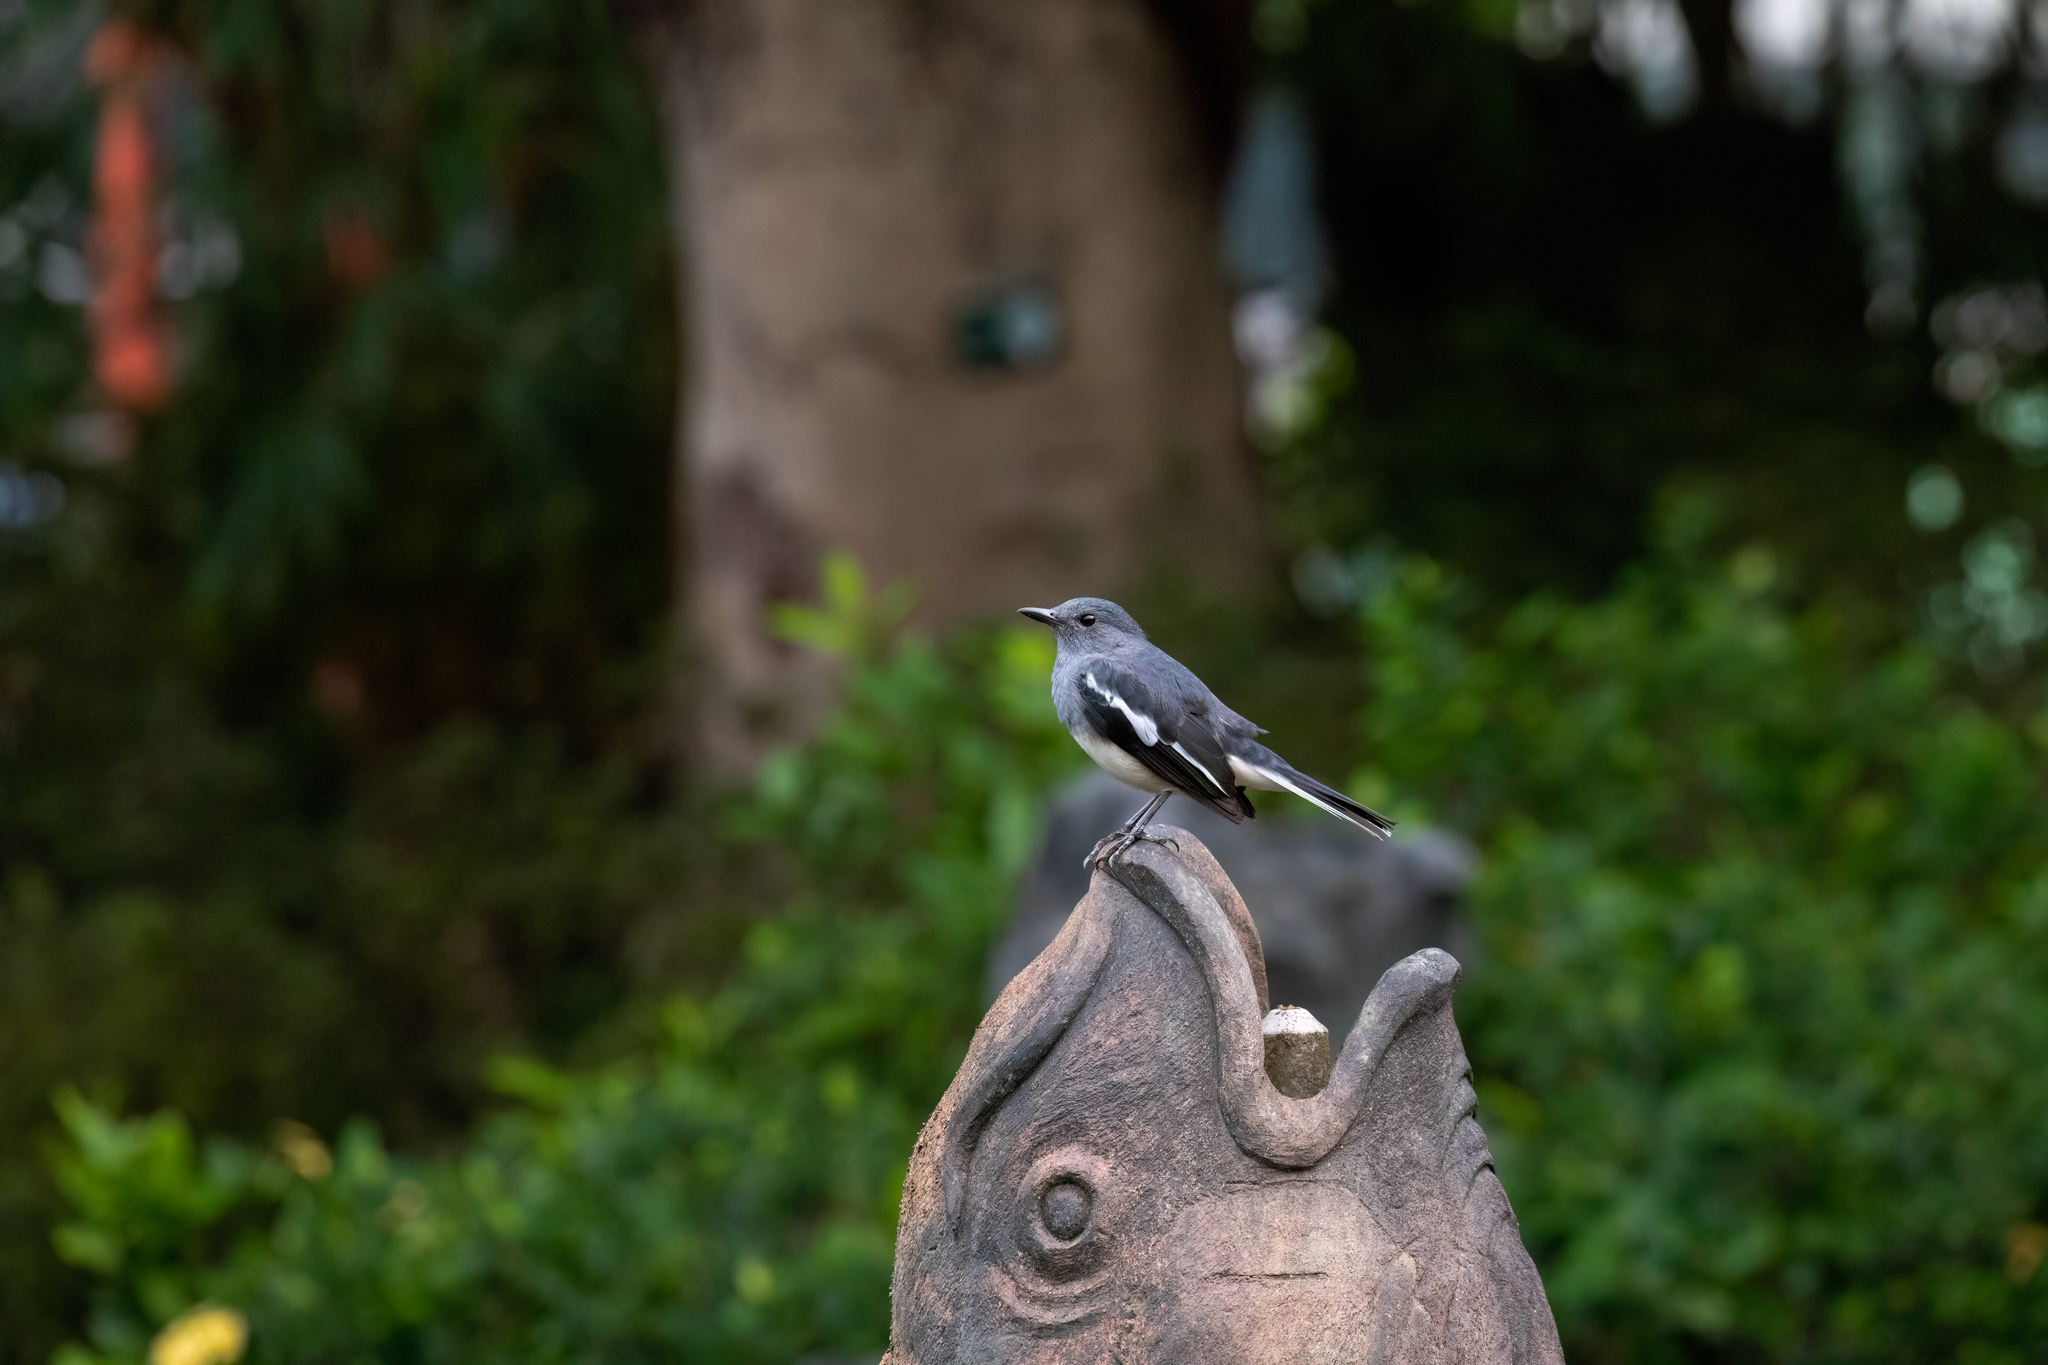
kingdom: Animalia
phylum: Chordata
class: Aves
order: Passeriformes
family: Muscicapidae
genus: Copsychus
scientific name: Copsychus saularis
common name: Oriental magpie-robin
